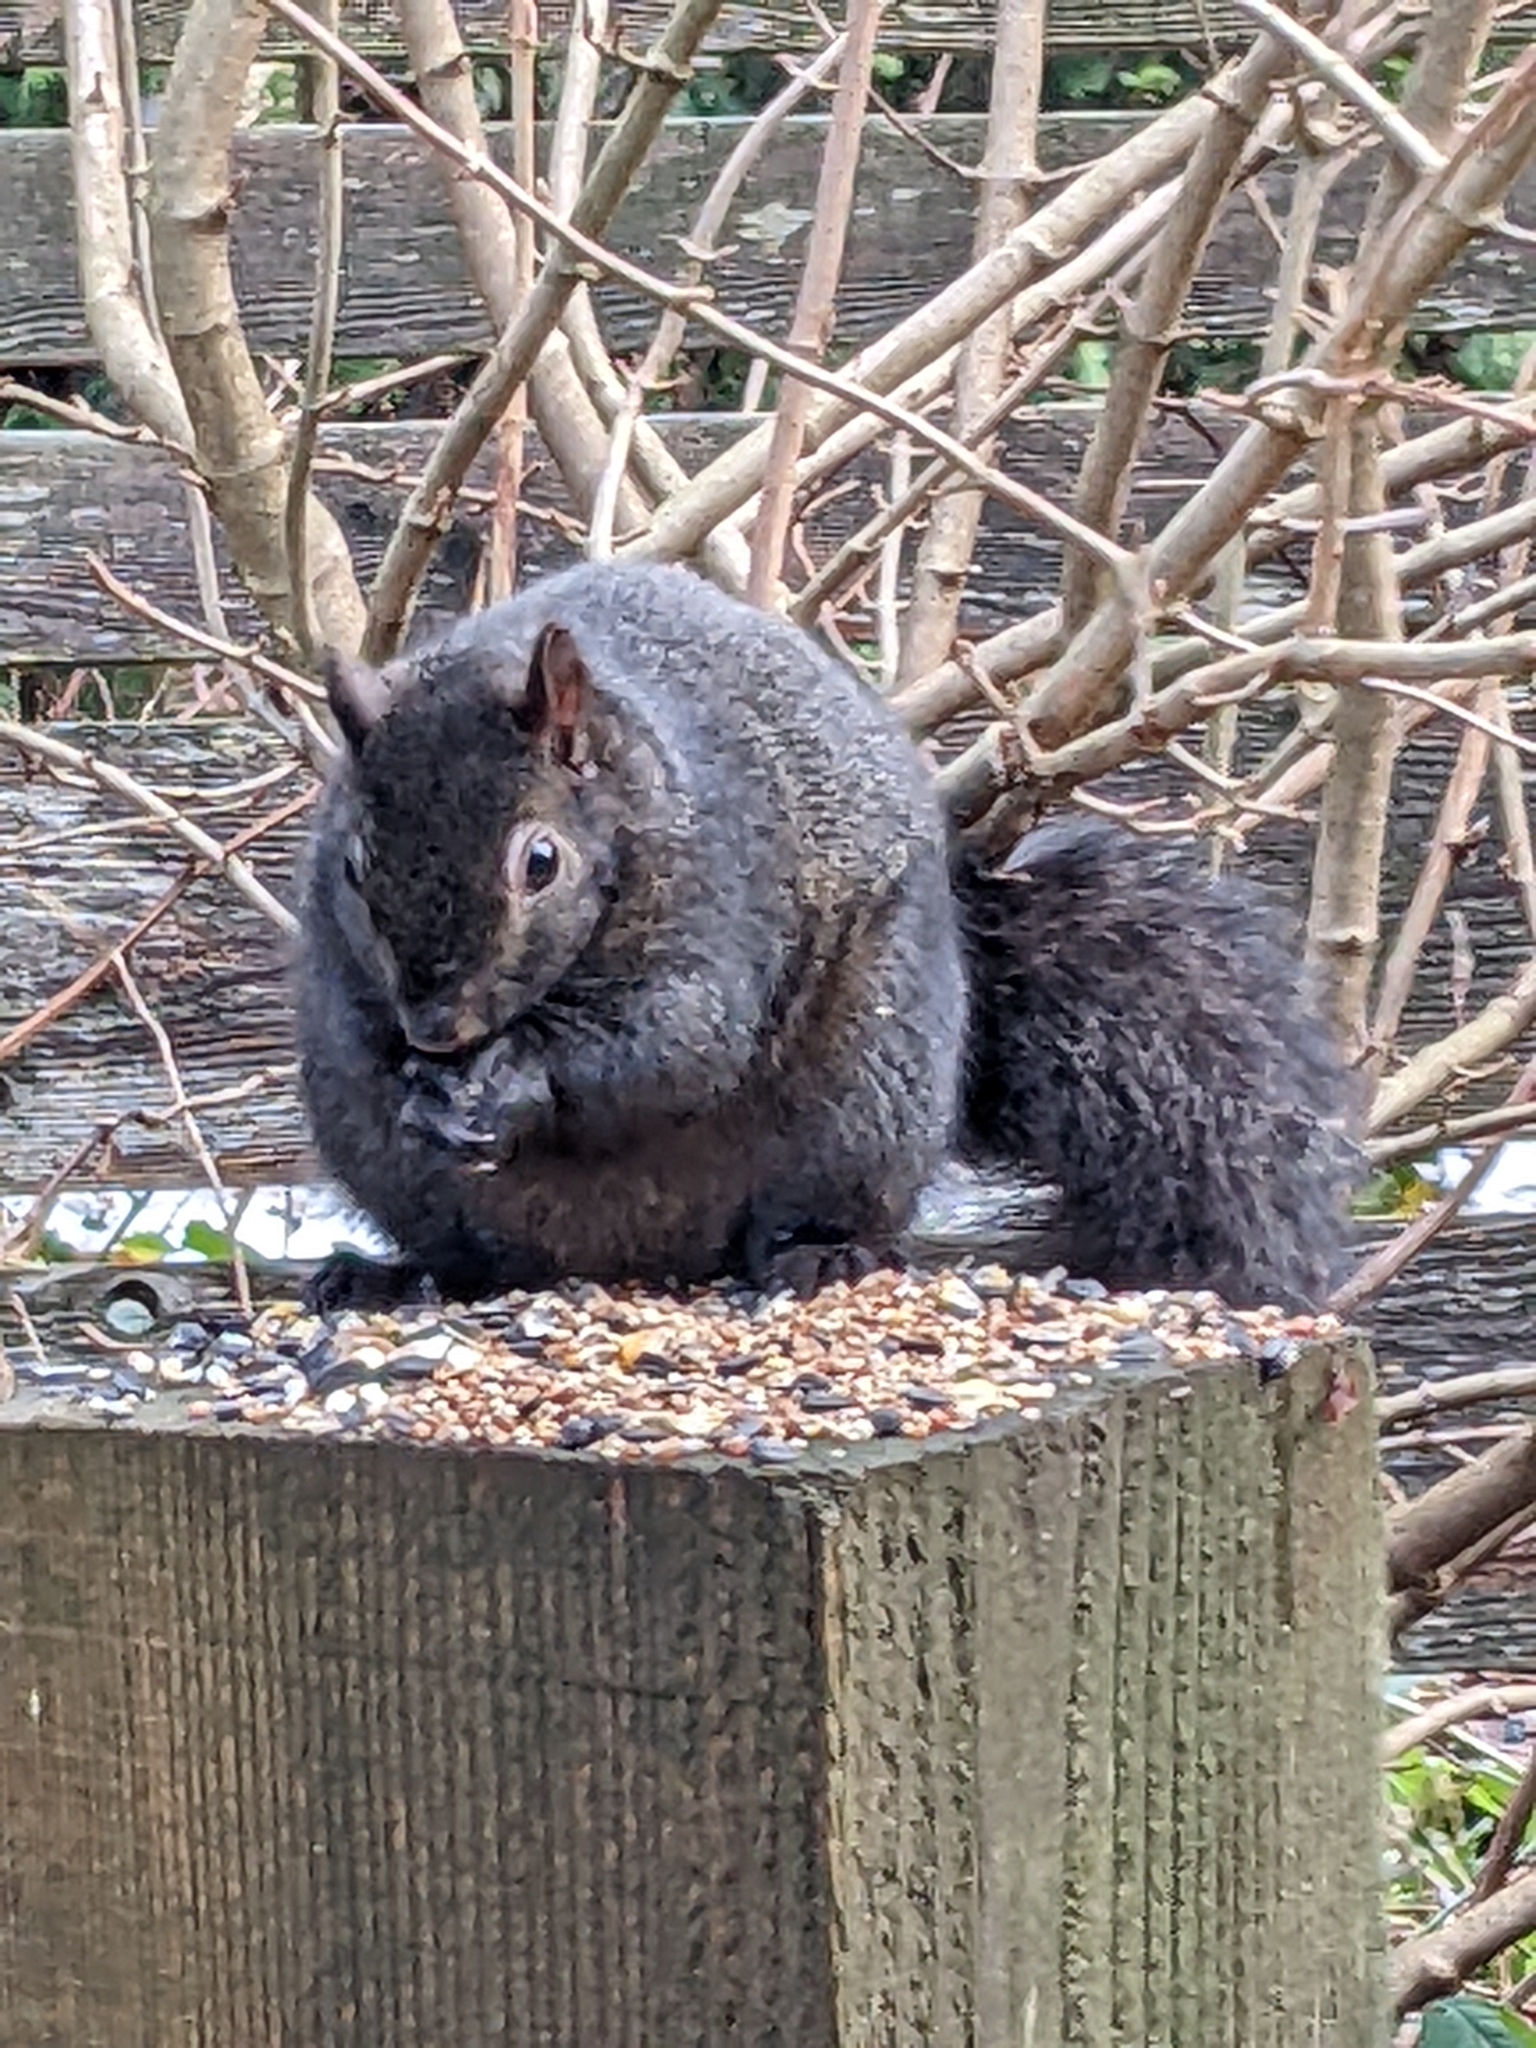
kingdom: Animalia
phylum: Chordata
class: Mammalia
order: Rodentia
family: Sciuridae
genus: Sciurus
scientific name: Sciurus carolinensis
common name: Eastern gray squirrel
